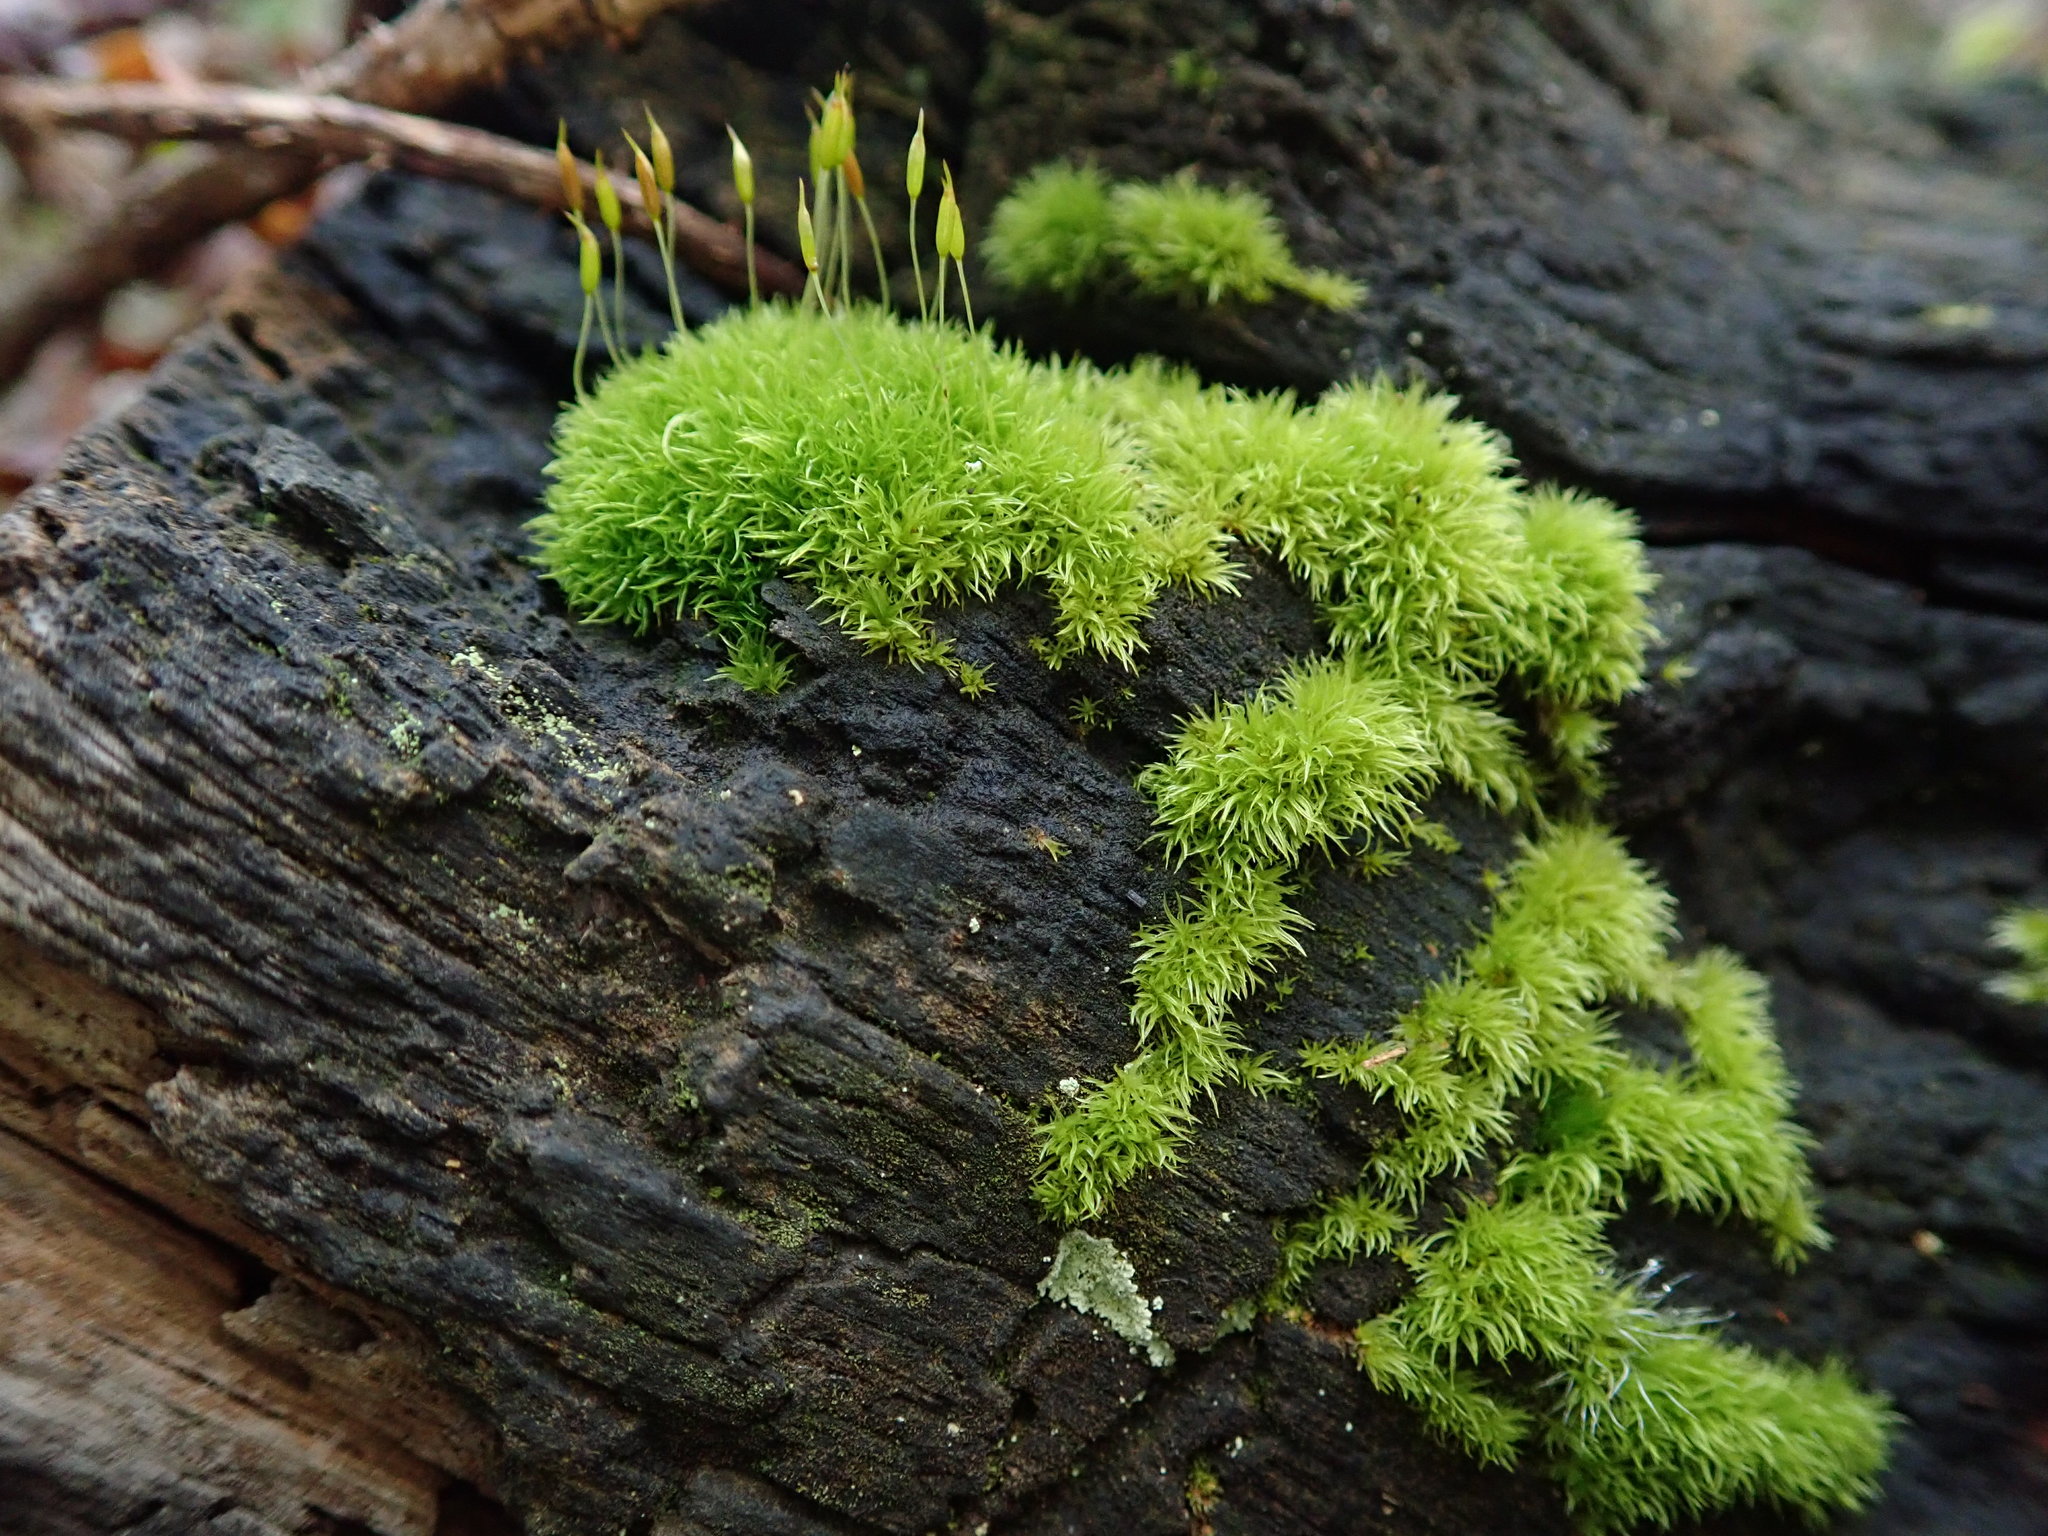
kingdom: Plantae
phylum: Bryophyta
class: Bryopsida
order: Dicranales
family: Rhabdoweisiaceae
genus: Dicranoweisia
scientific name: Dicranoweisia cirrata
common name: Common pincushion
